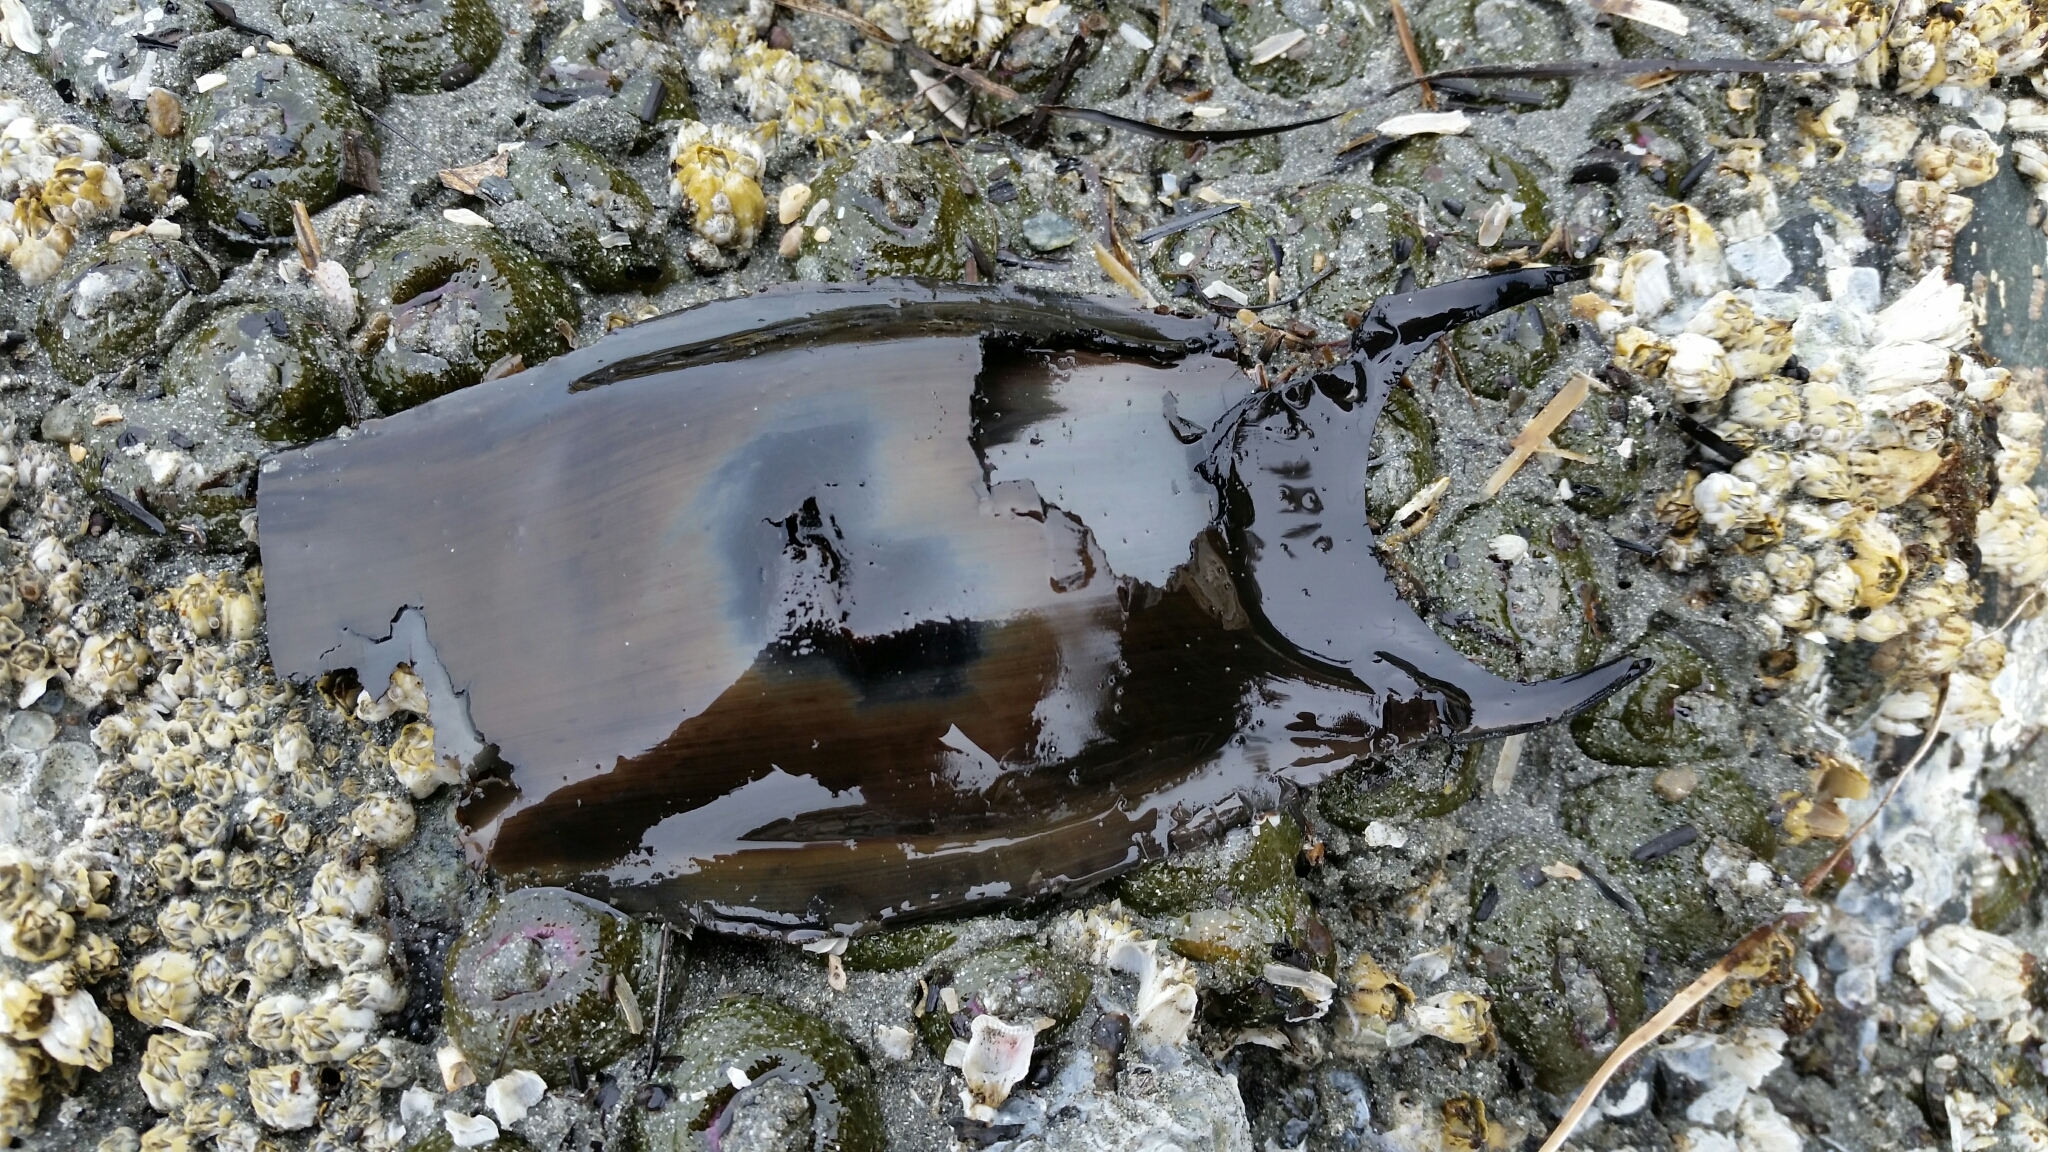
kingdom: Animalia
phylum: Chordata
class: Elasmobranchii
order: Rajiformes
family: Rajidae
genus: Caliraja
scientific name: Caliraja
